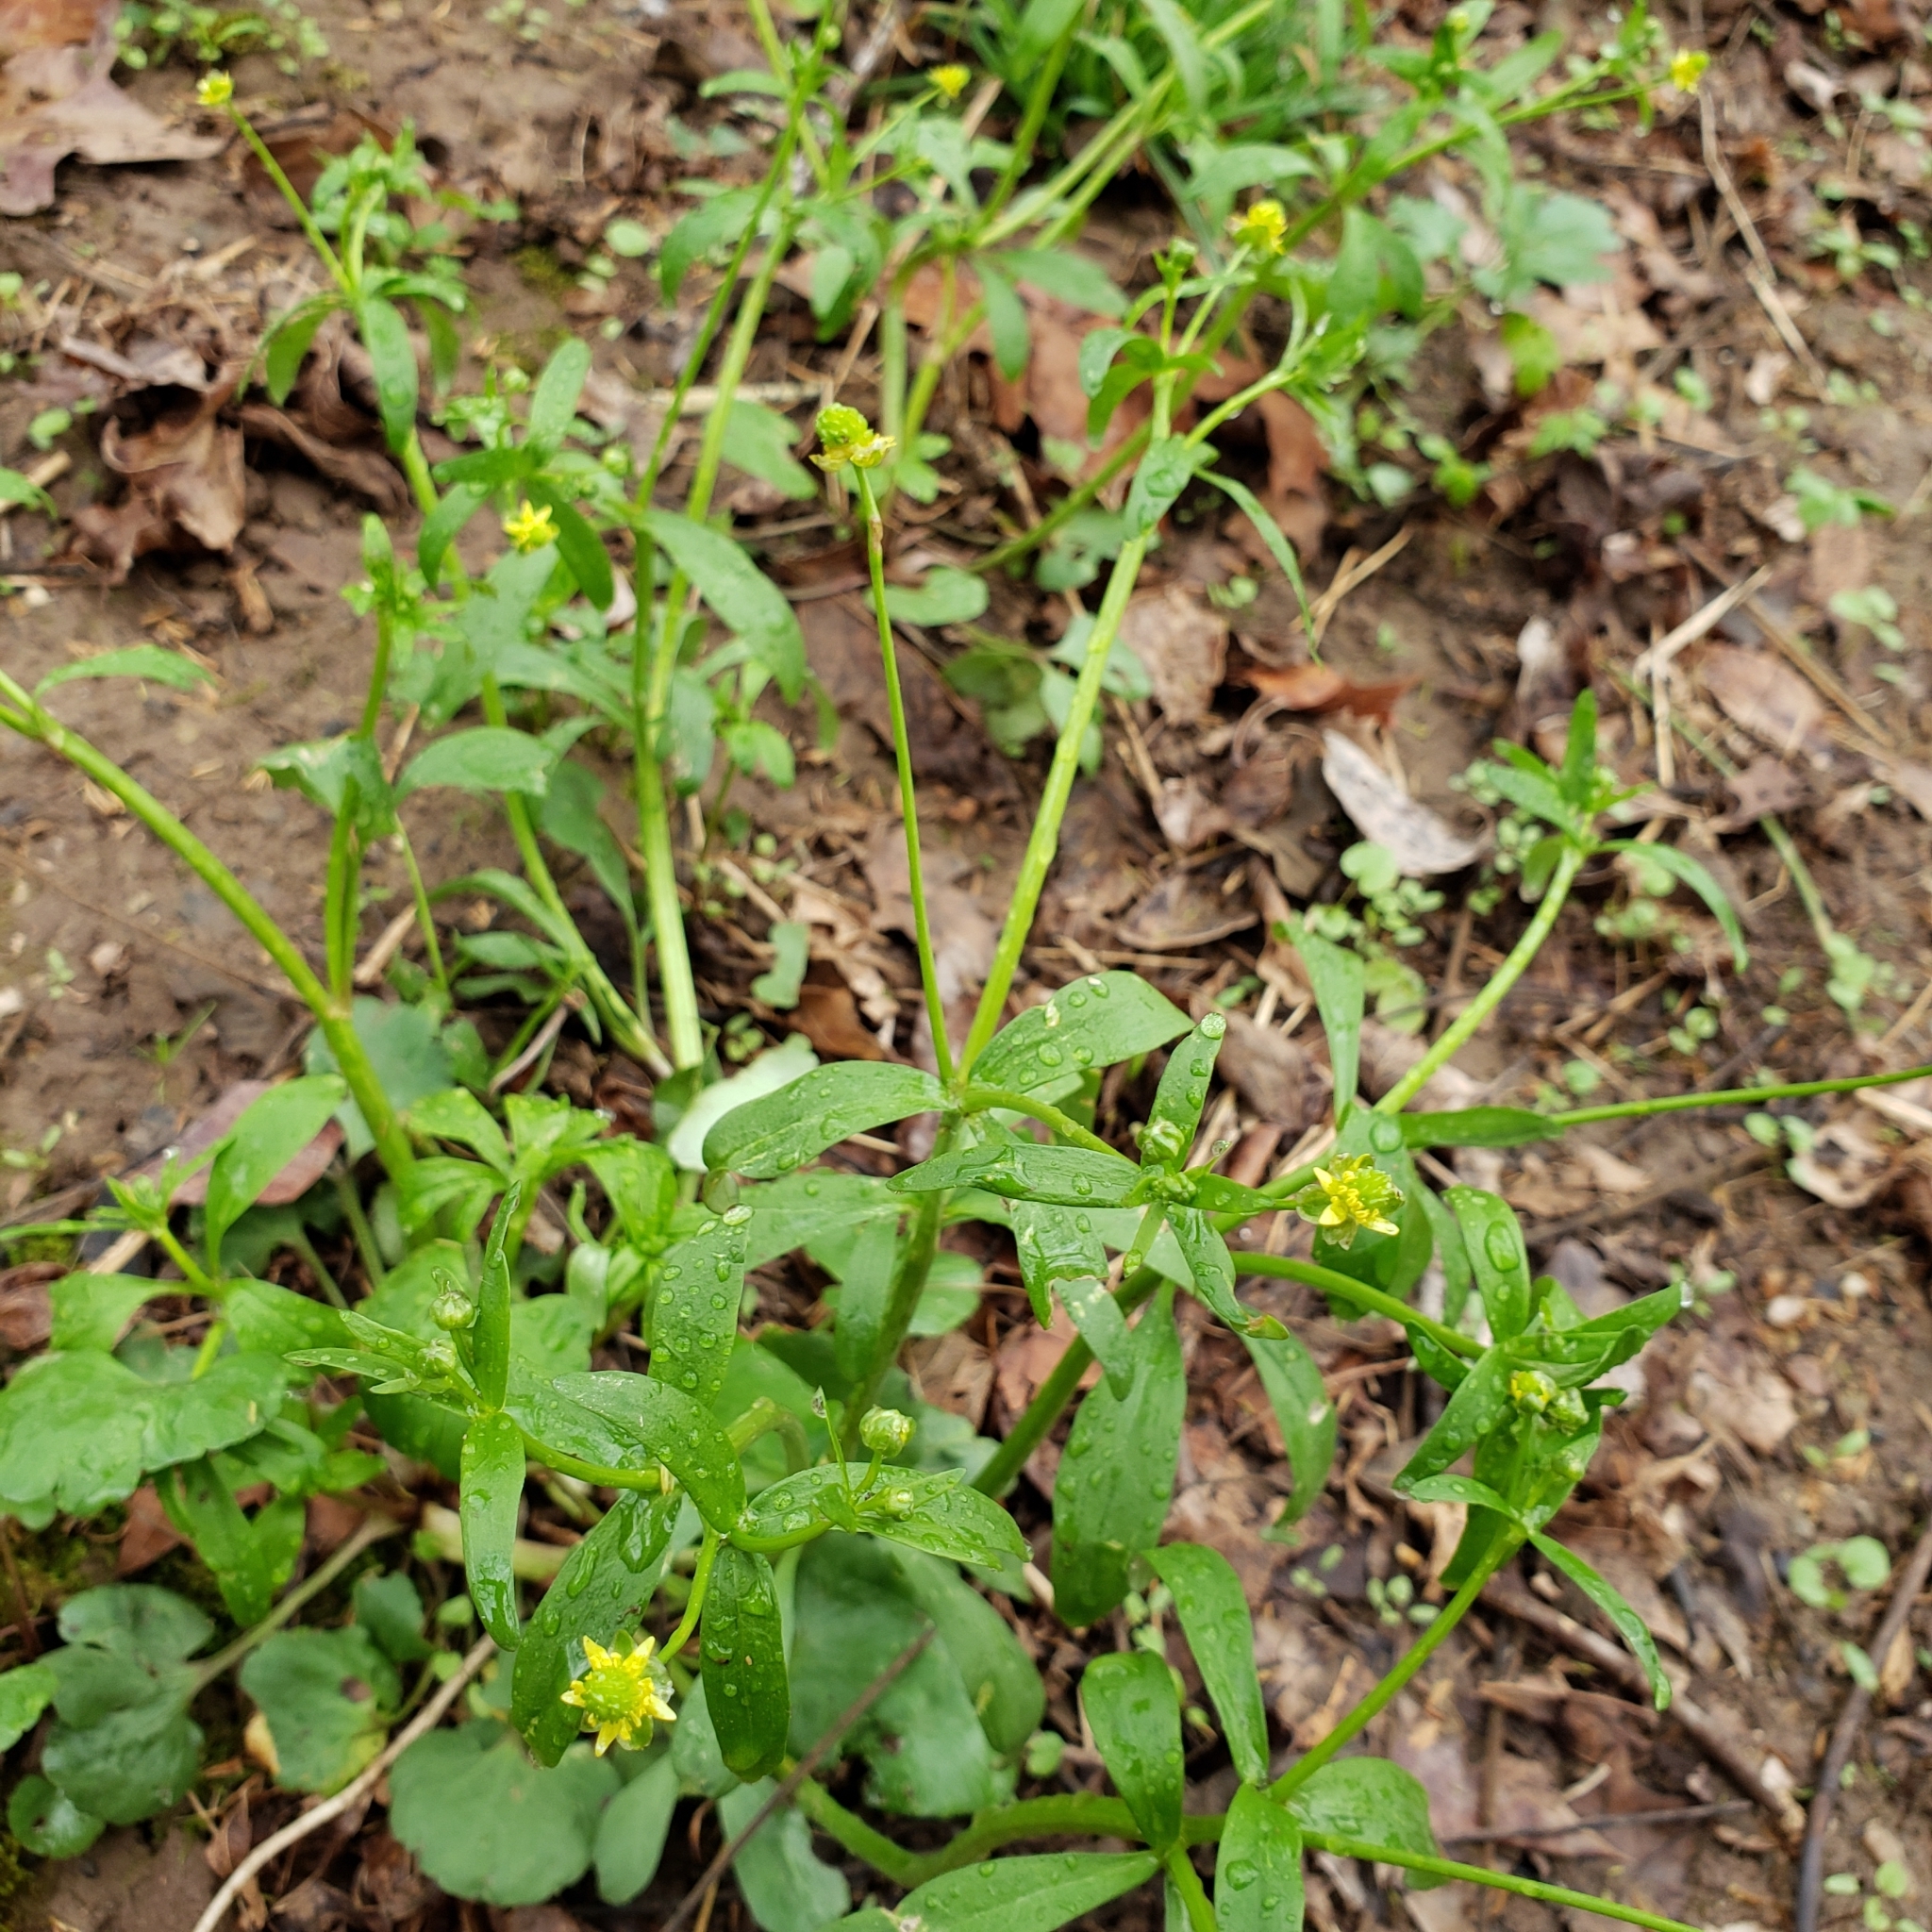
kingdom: Plantae
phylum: Tracheophyta
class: Magnoliopsida
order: Ranunculales
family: Ranunculaceae
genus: Ranunculus
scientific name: Ranunculus abortivus
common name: Early wood buttercup
